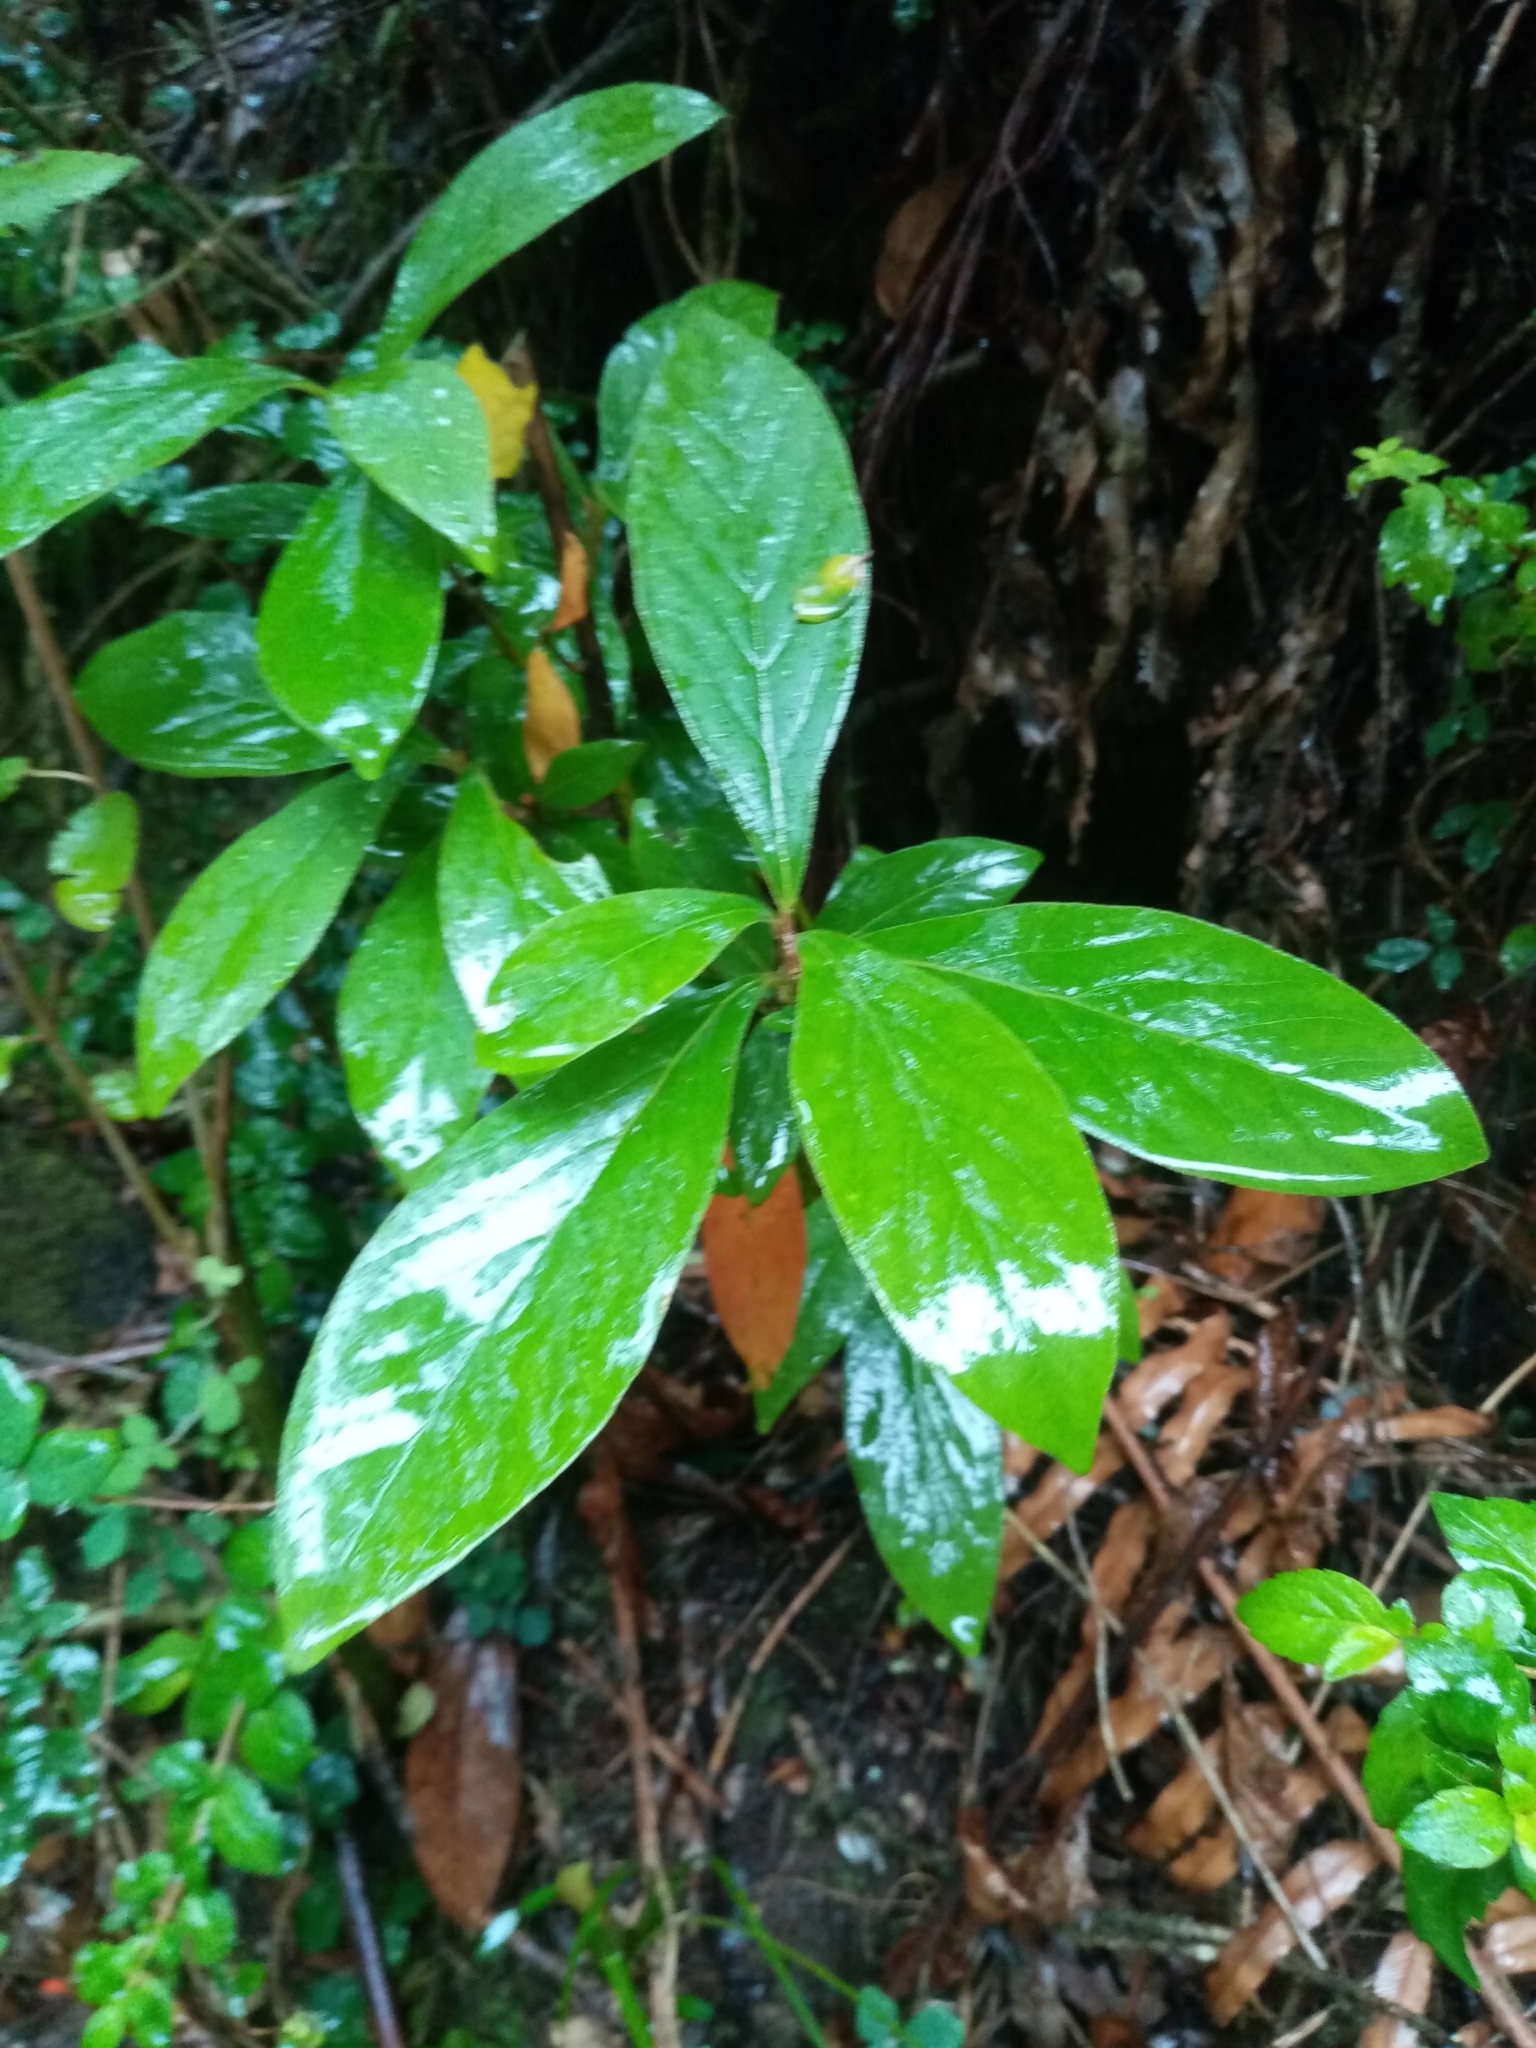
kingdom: Plantae
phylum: Tracheophyta
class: Magnoliopsida
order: Laurales
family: Lauraceae
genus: Persea
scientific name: Persea lingue
